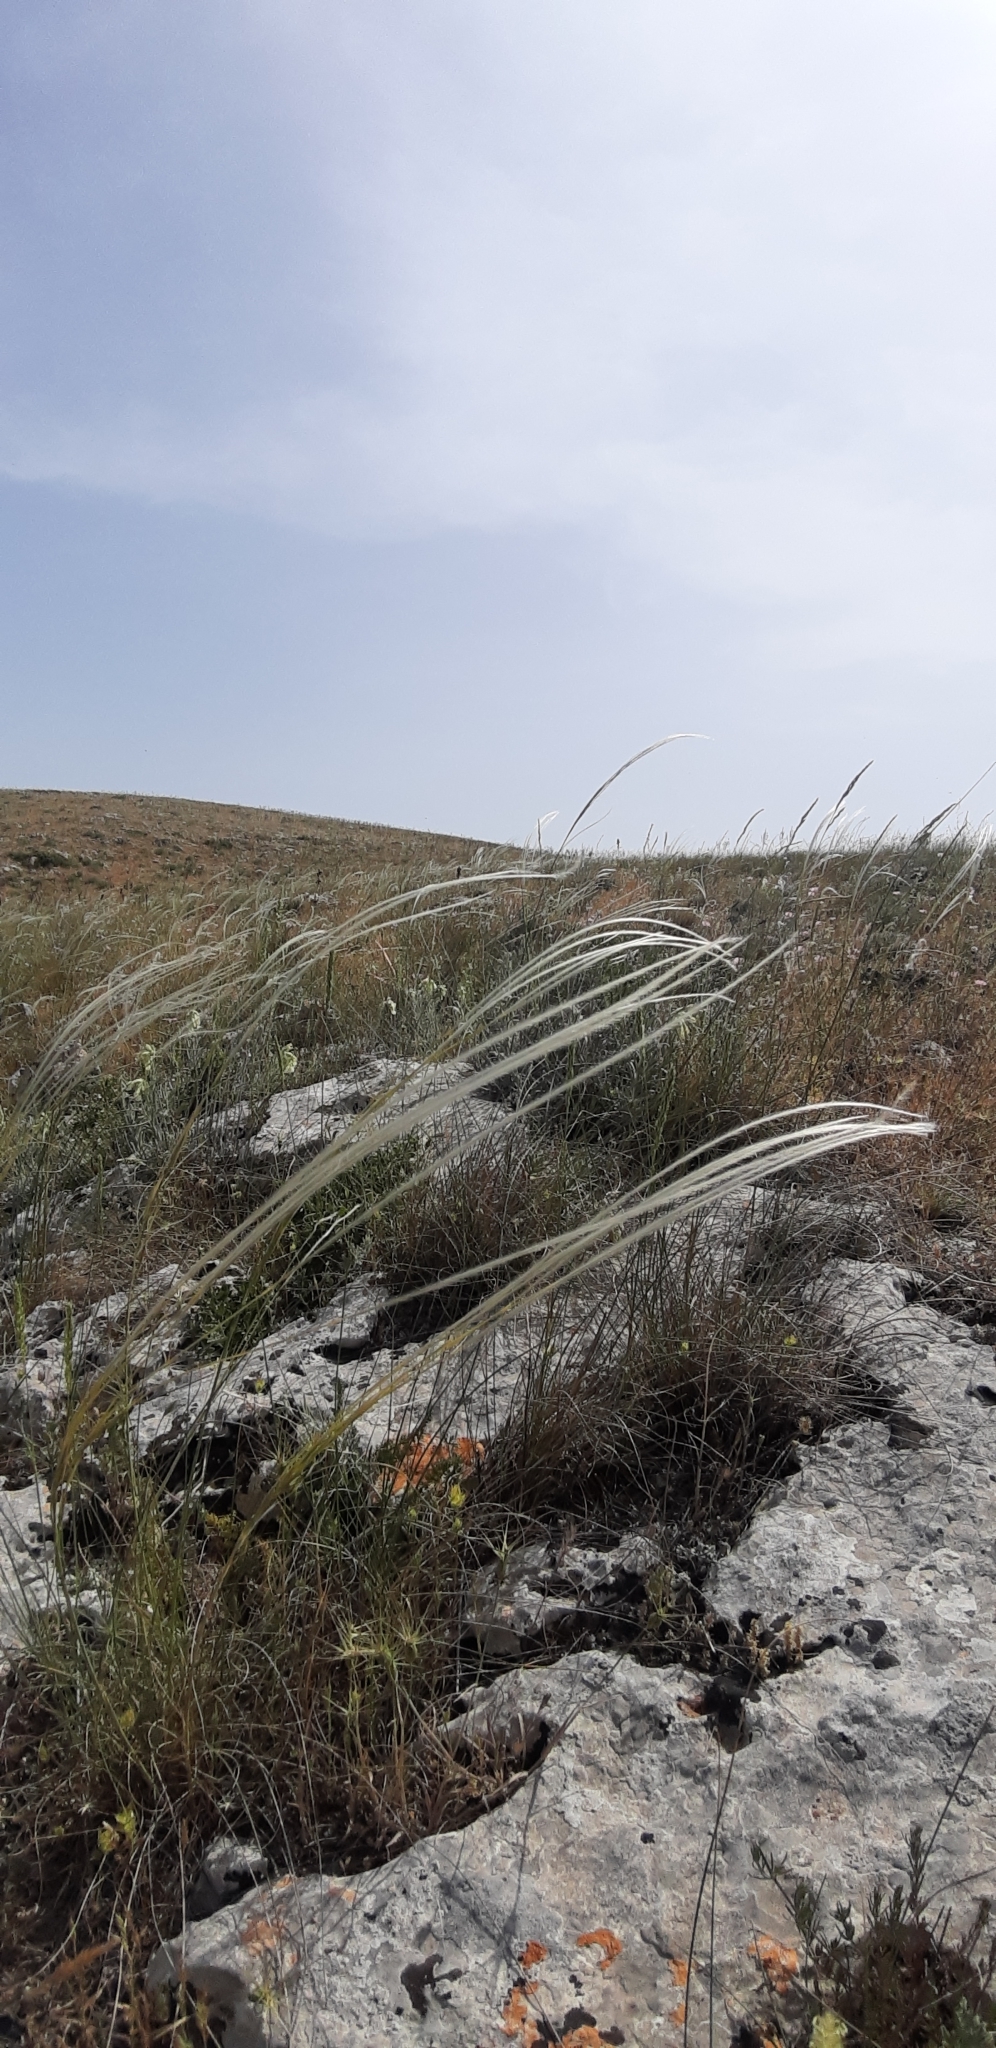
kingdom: Plantae
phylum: Tracheophyta
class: Liliopsida
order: Poales
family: Poaceae
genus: Stipa
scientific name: Stipa austroitalica
